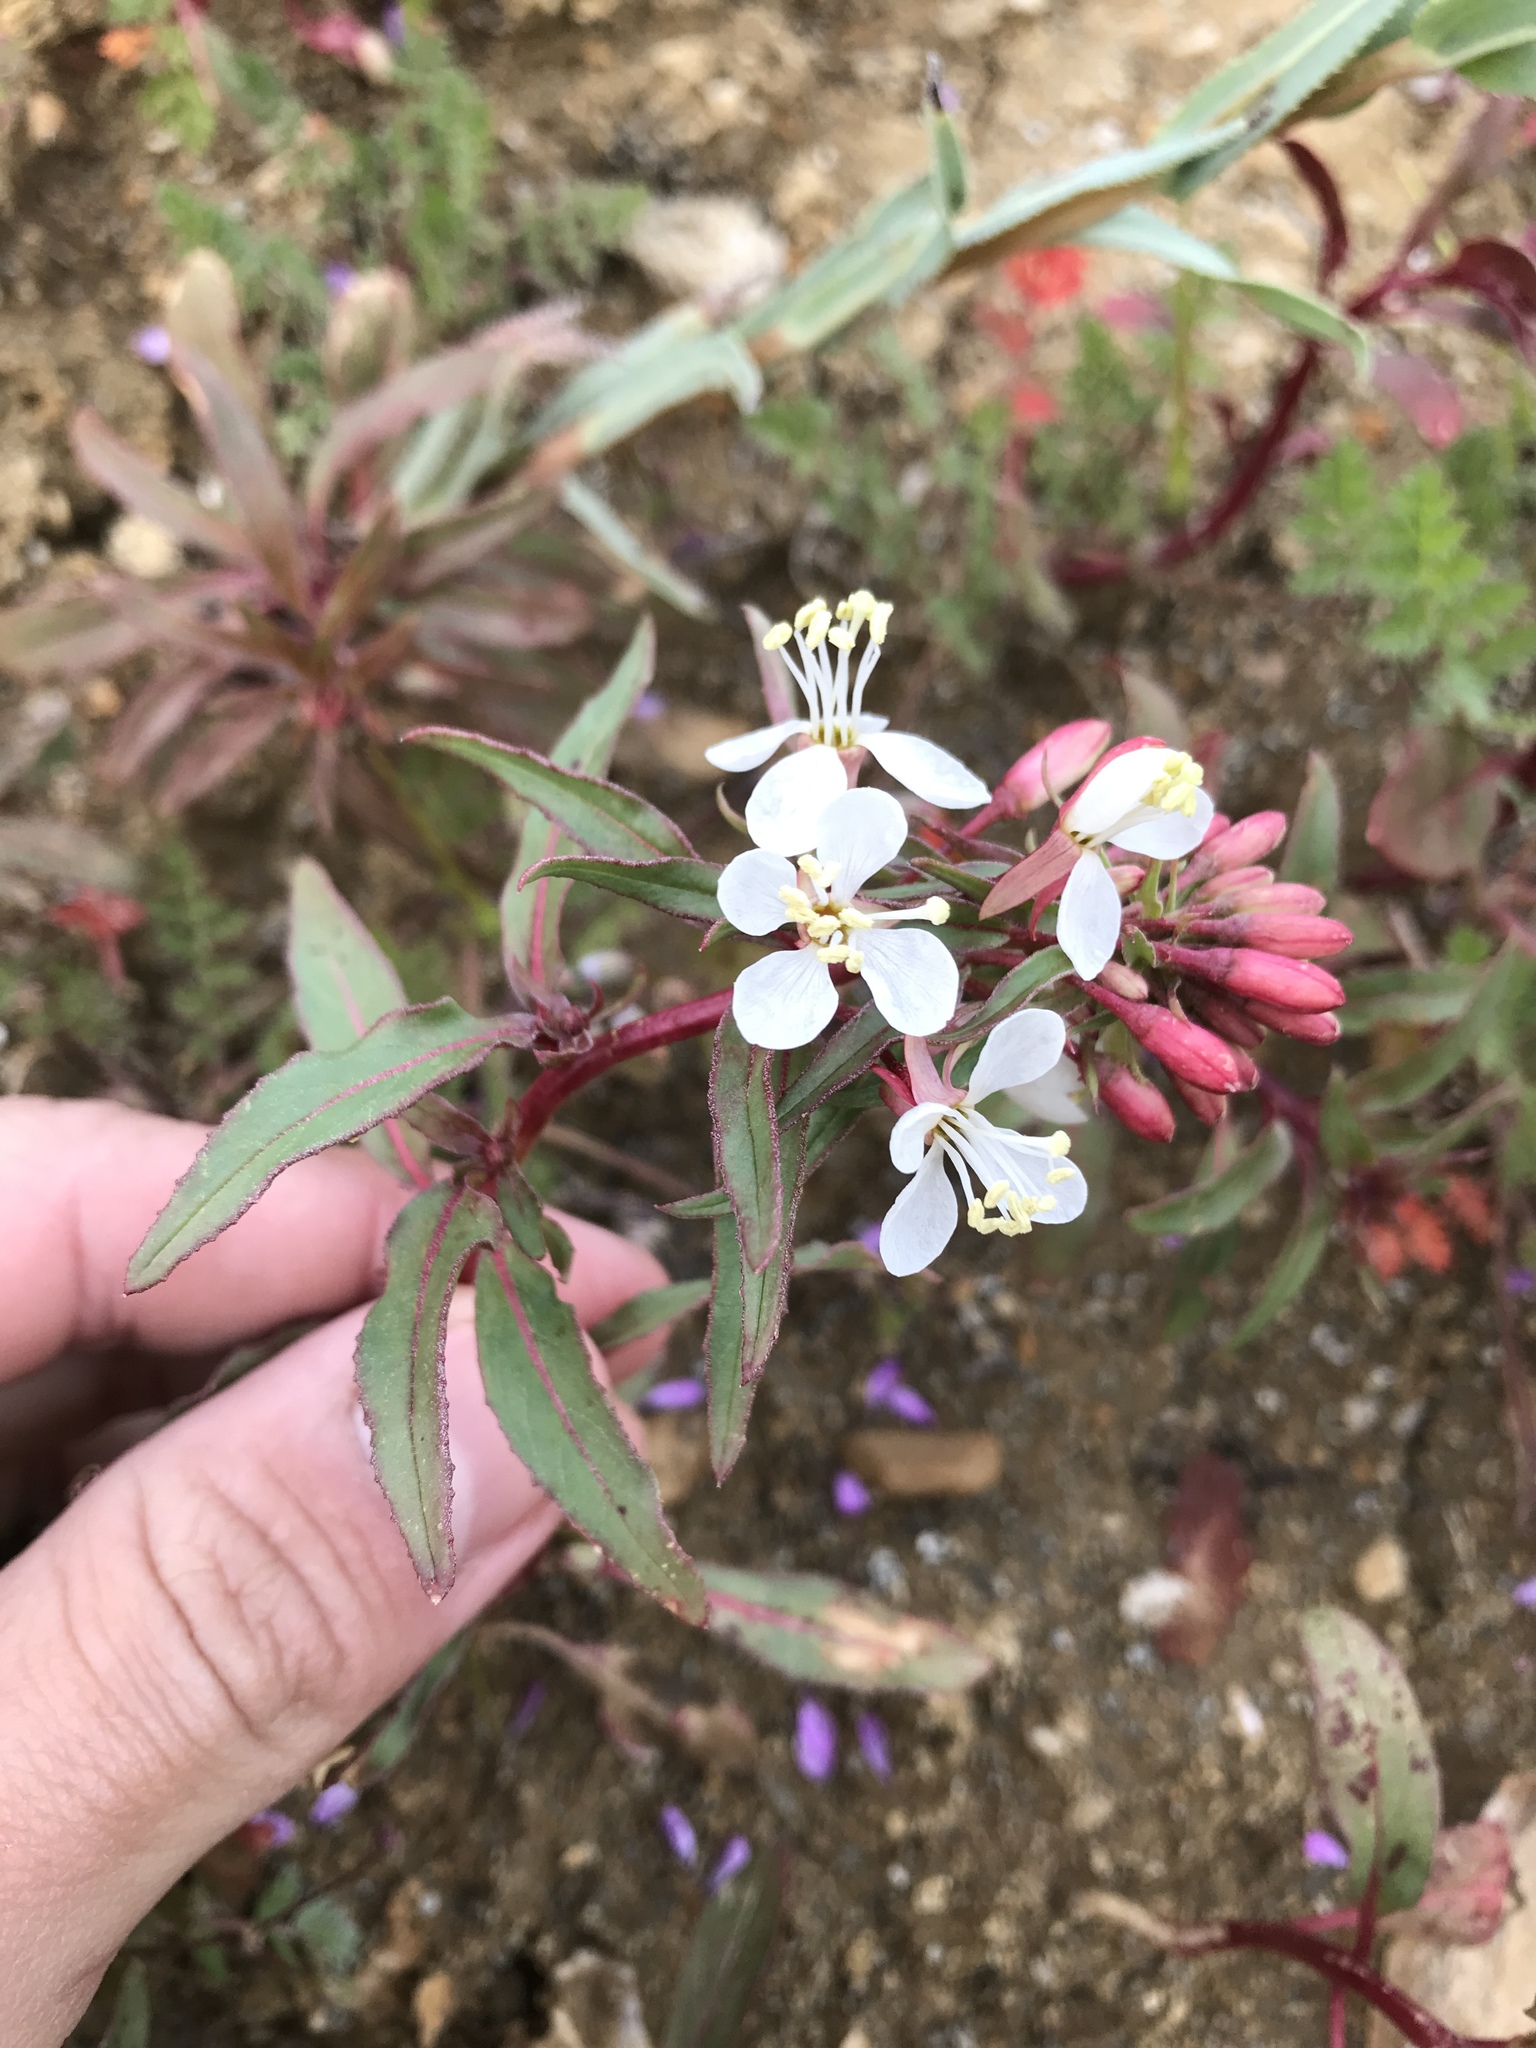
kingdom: Plantae
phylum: Tracheophyta
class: Magnoliopsida
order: Myrtales
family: Onagraceae
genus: Eremothera
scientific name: Eremothera boothii
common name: Booth's evening primrose
